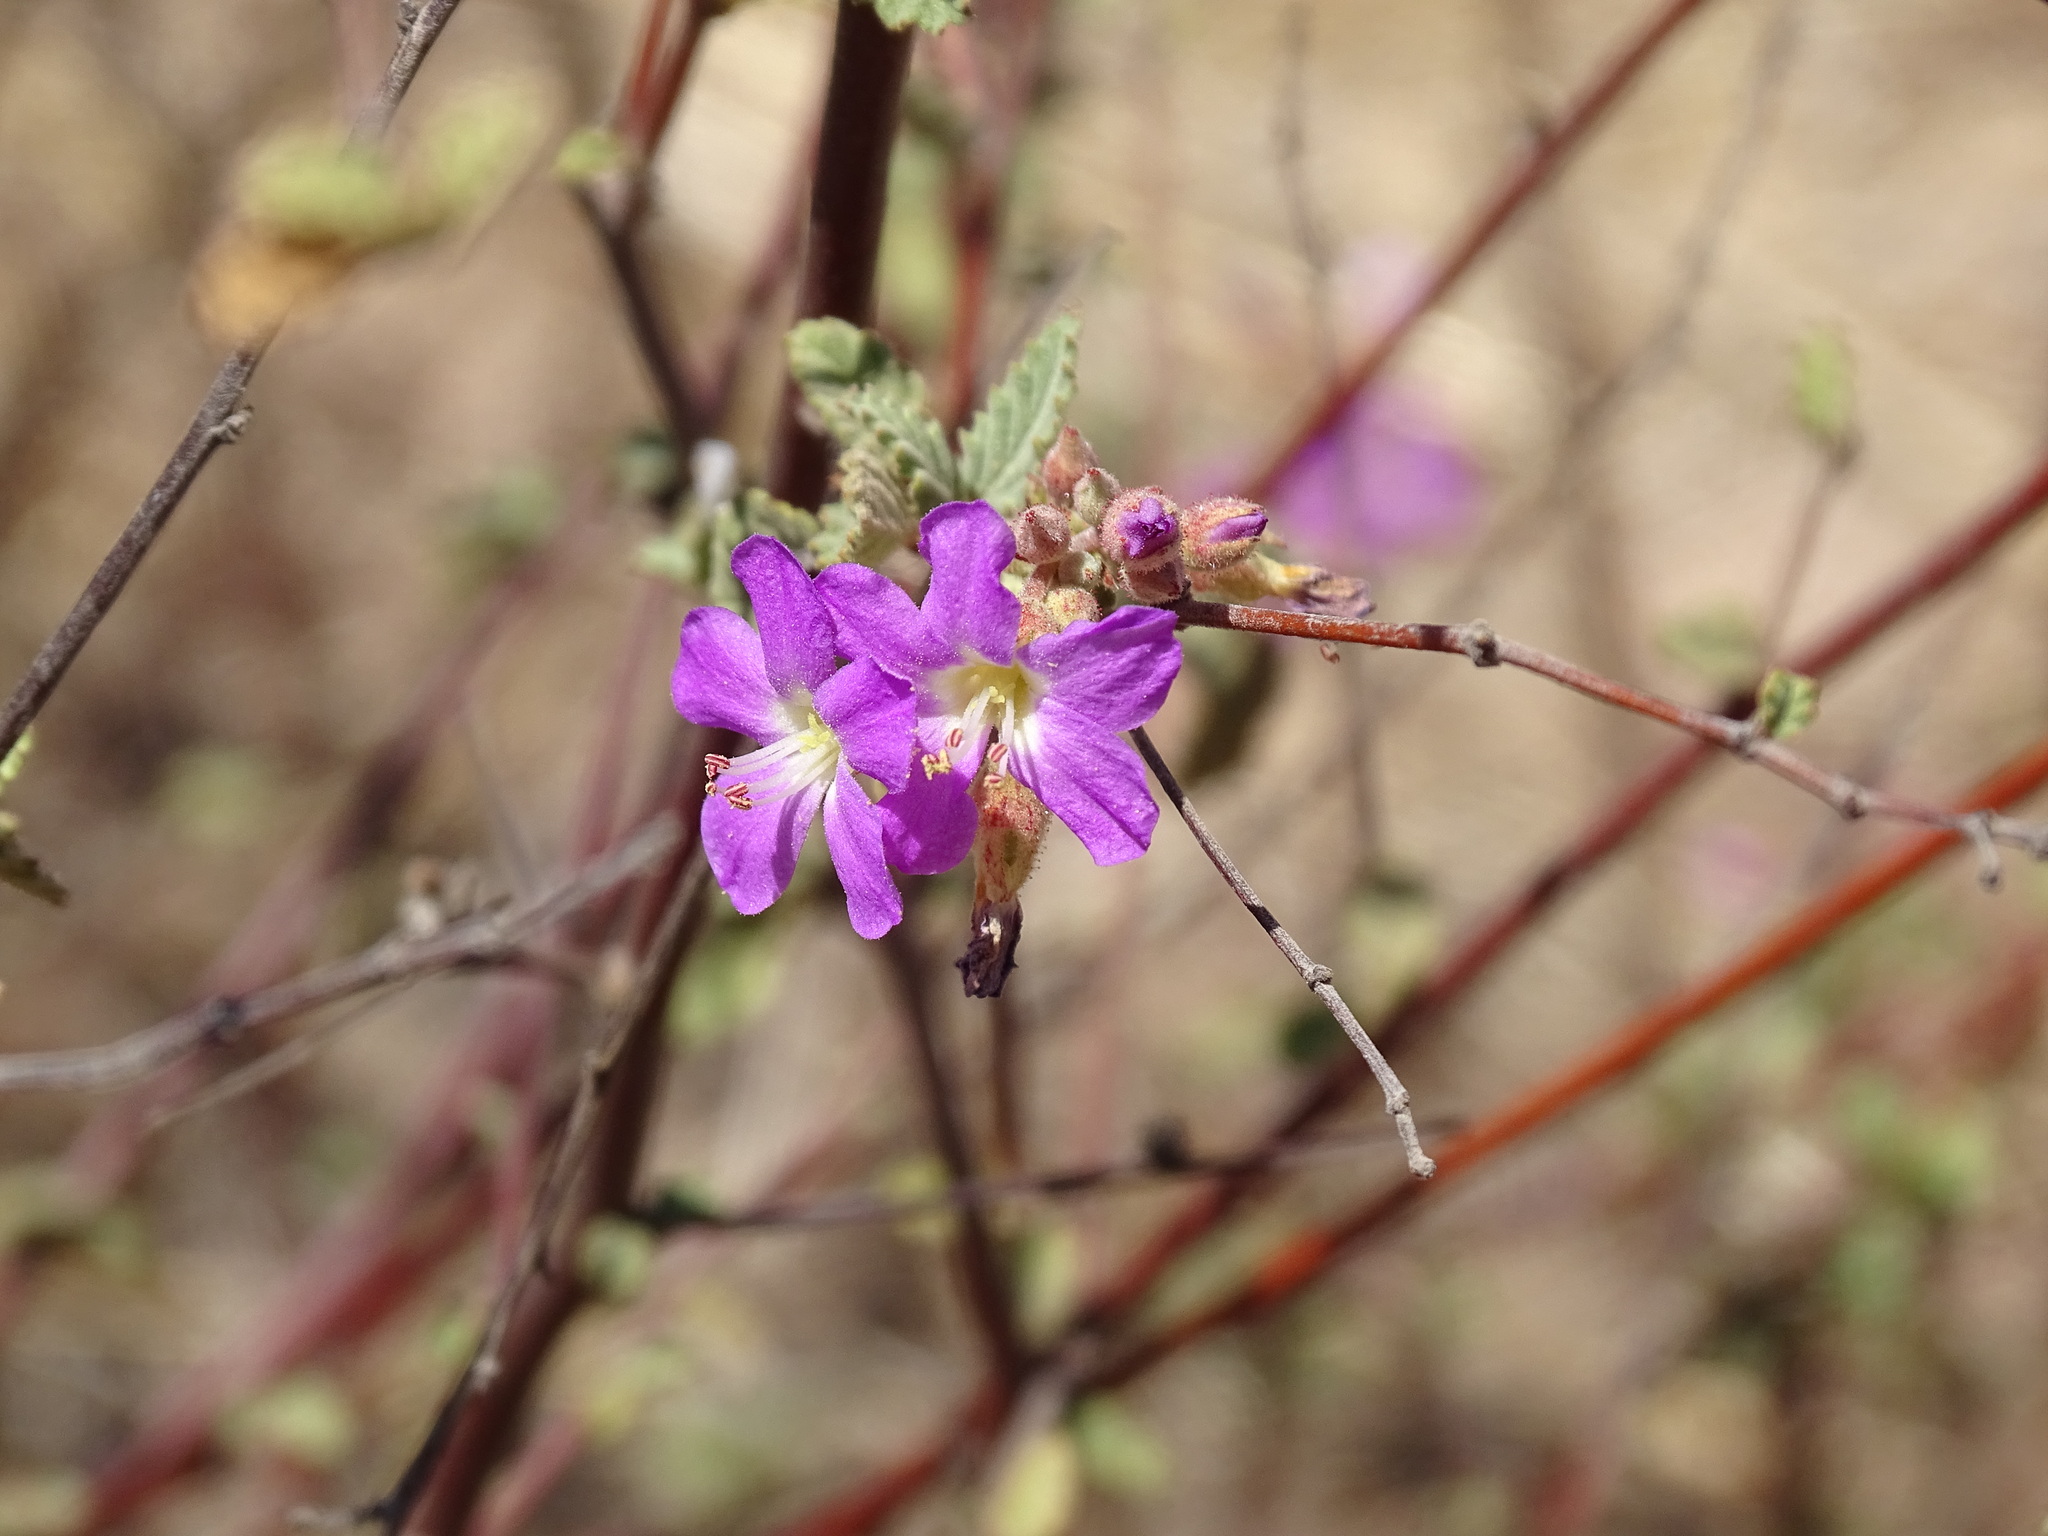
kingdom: Plantae
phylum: Tracheophyta
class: Magnoliopsida
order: Malvales
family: Malvaceae
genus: Melochia
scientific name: Melochia tomentosa
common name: Black torch
